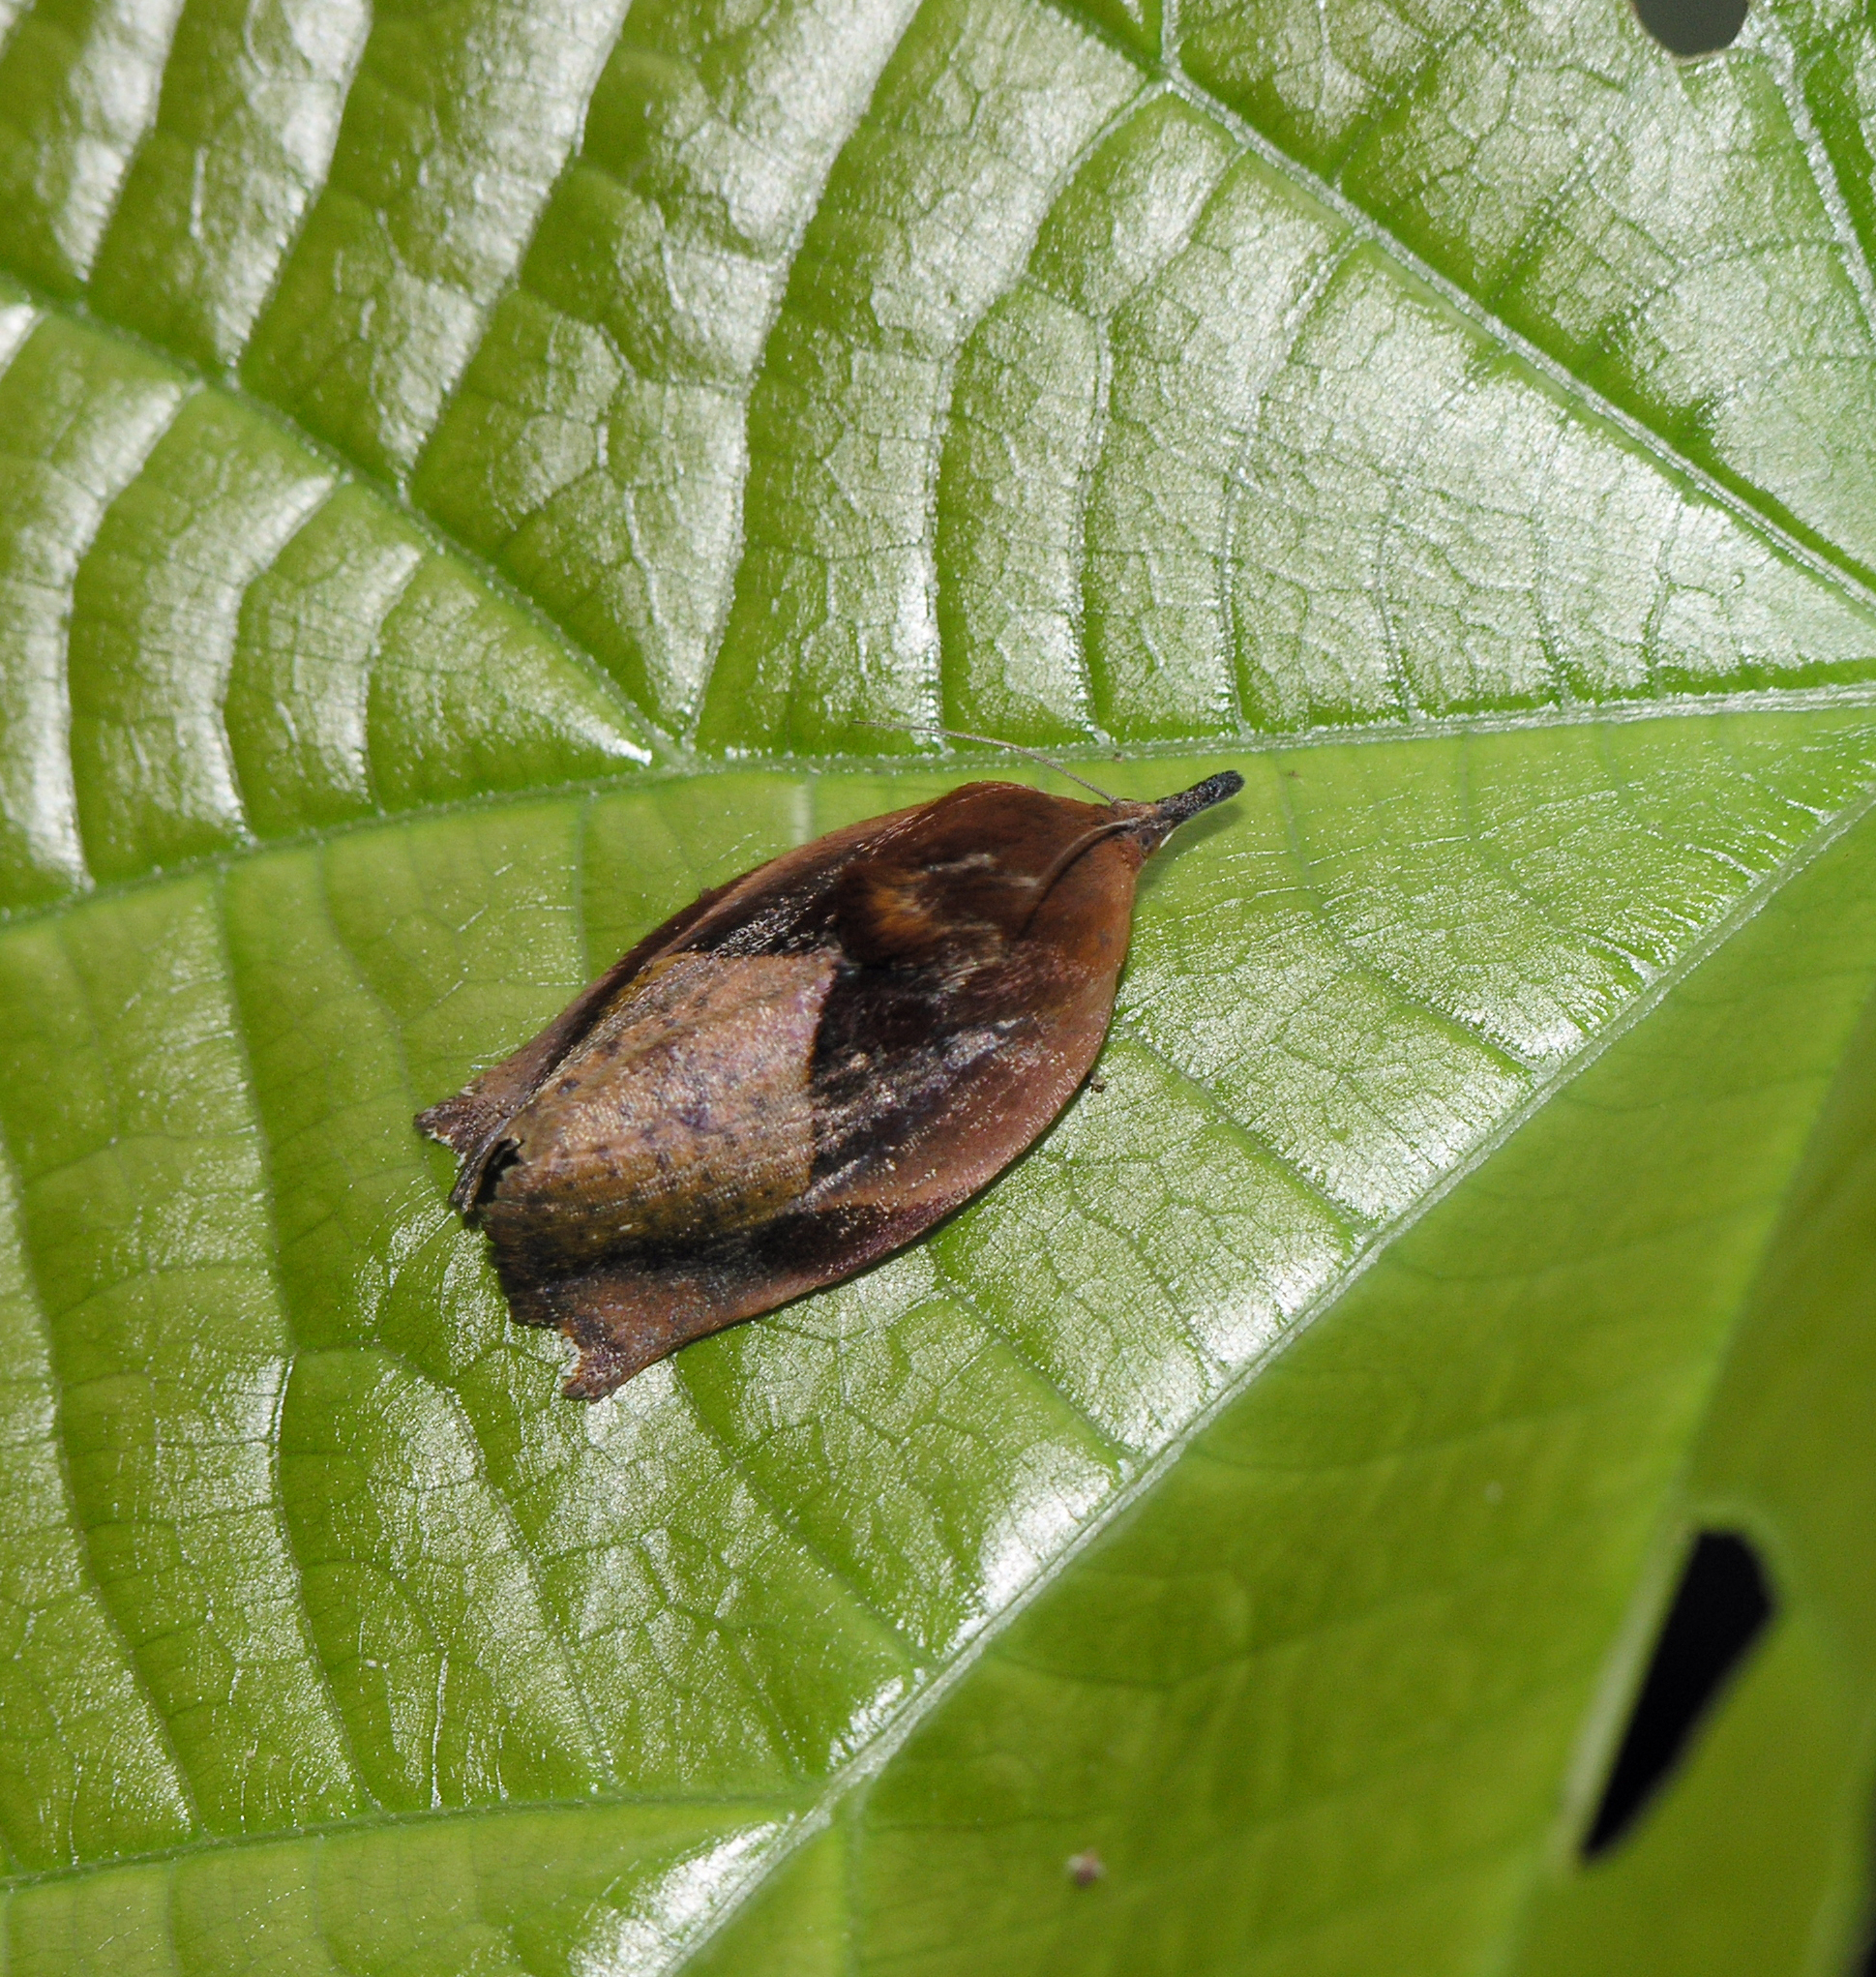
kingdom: Animalia
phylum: Arthropoda
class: Insecta
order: Lepidoptera
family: Hyblaeidae
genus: Hyblaea
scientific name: Hyblaea firmamentum
